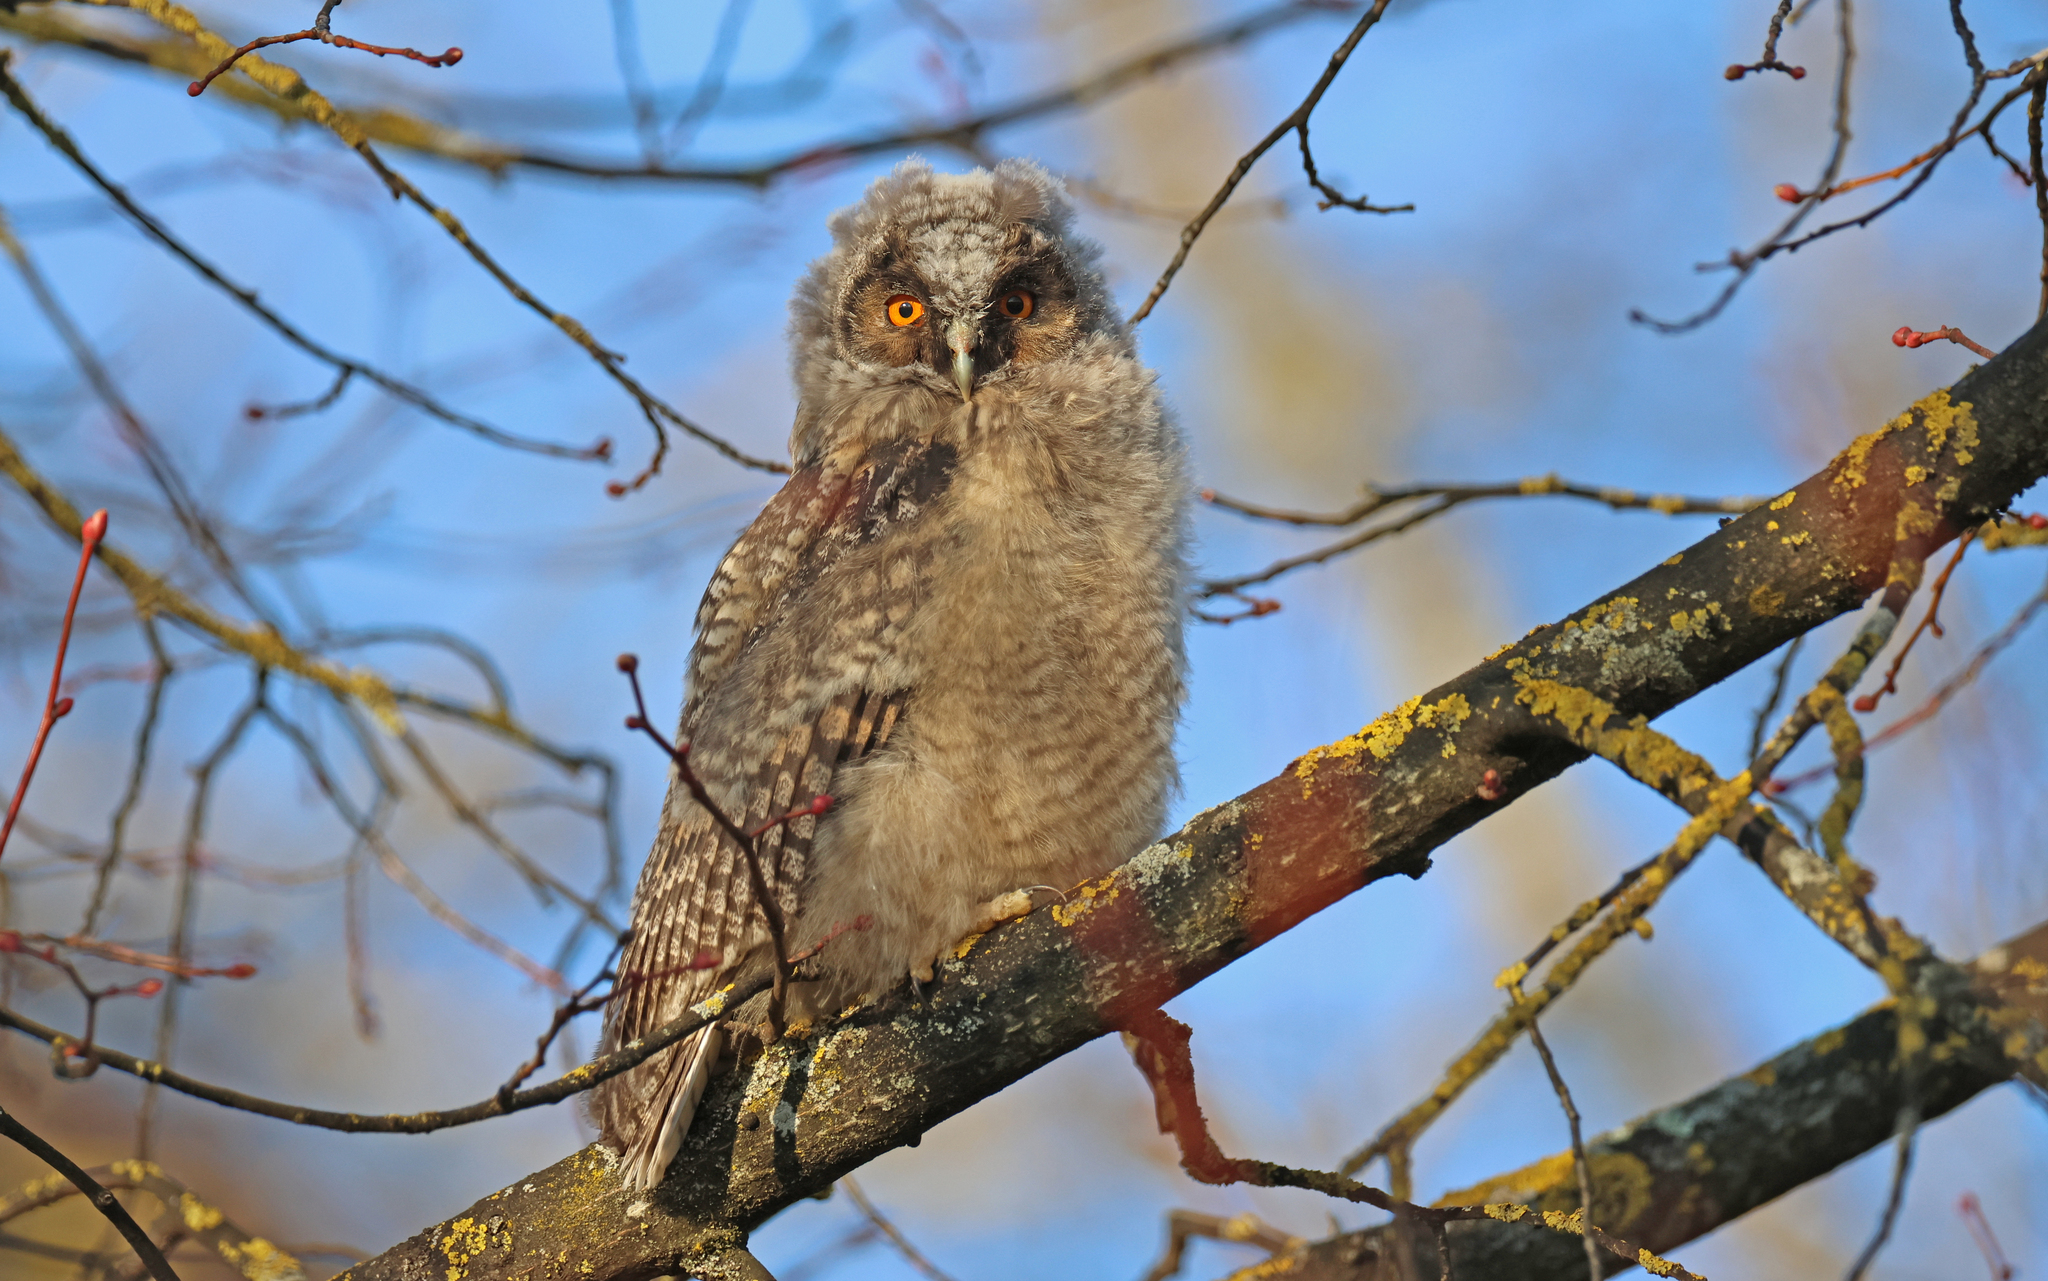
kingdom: Animalia
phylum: Chordata
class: Aves
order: Strigiformes
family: Strigidae
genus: Asio
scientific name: Asio otus
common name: Long-eared owl
